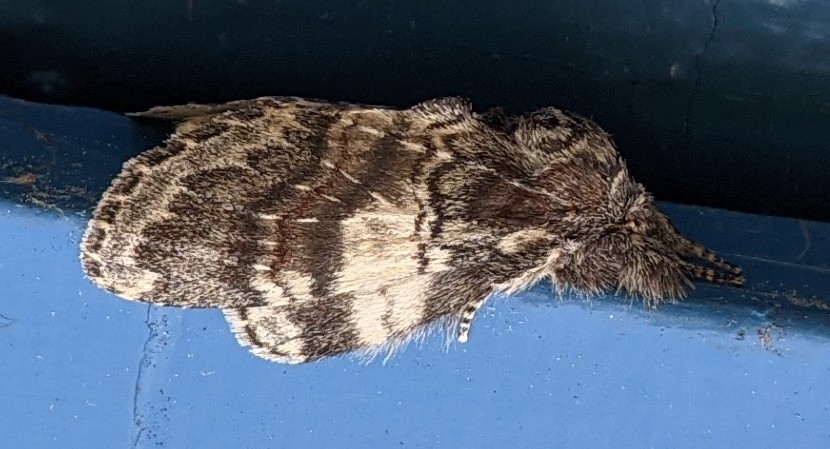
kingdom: Animalia
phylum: Arthropoda
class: Insecta
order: Lepidoptera
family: Notodontidae
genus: Peridea
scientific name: Peridea ferruginea
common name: Chocolate prominent
